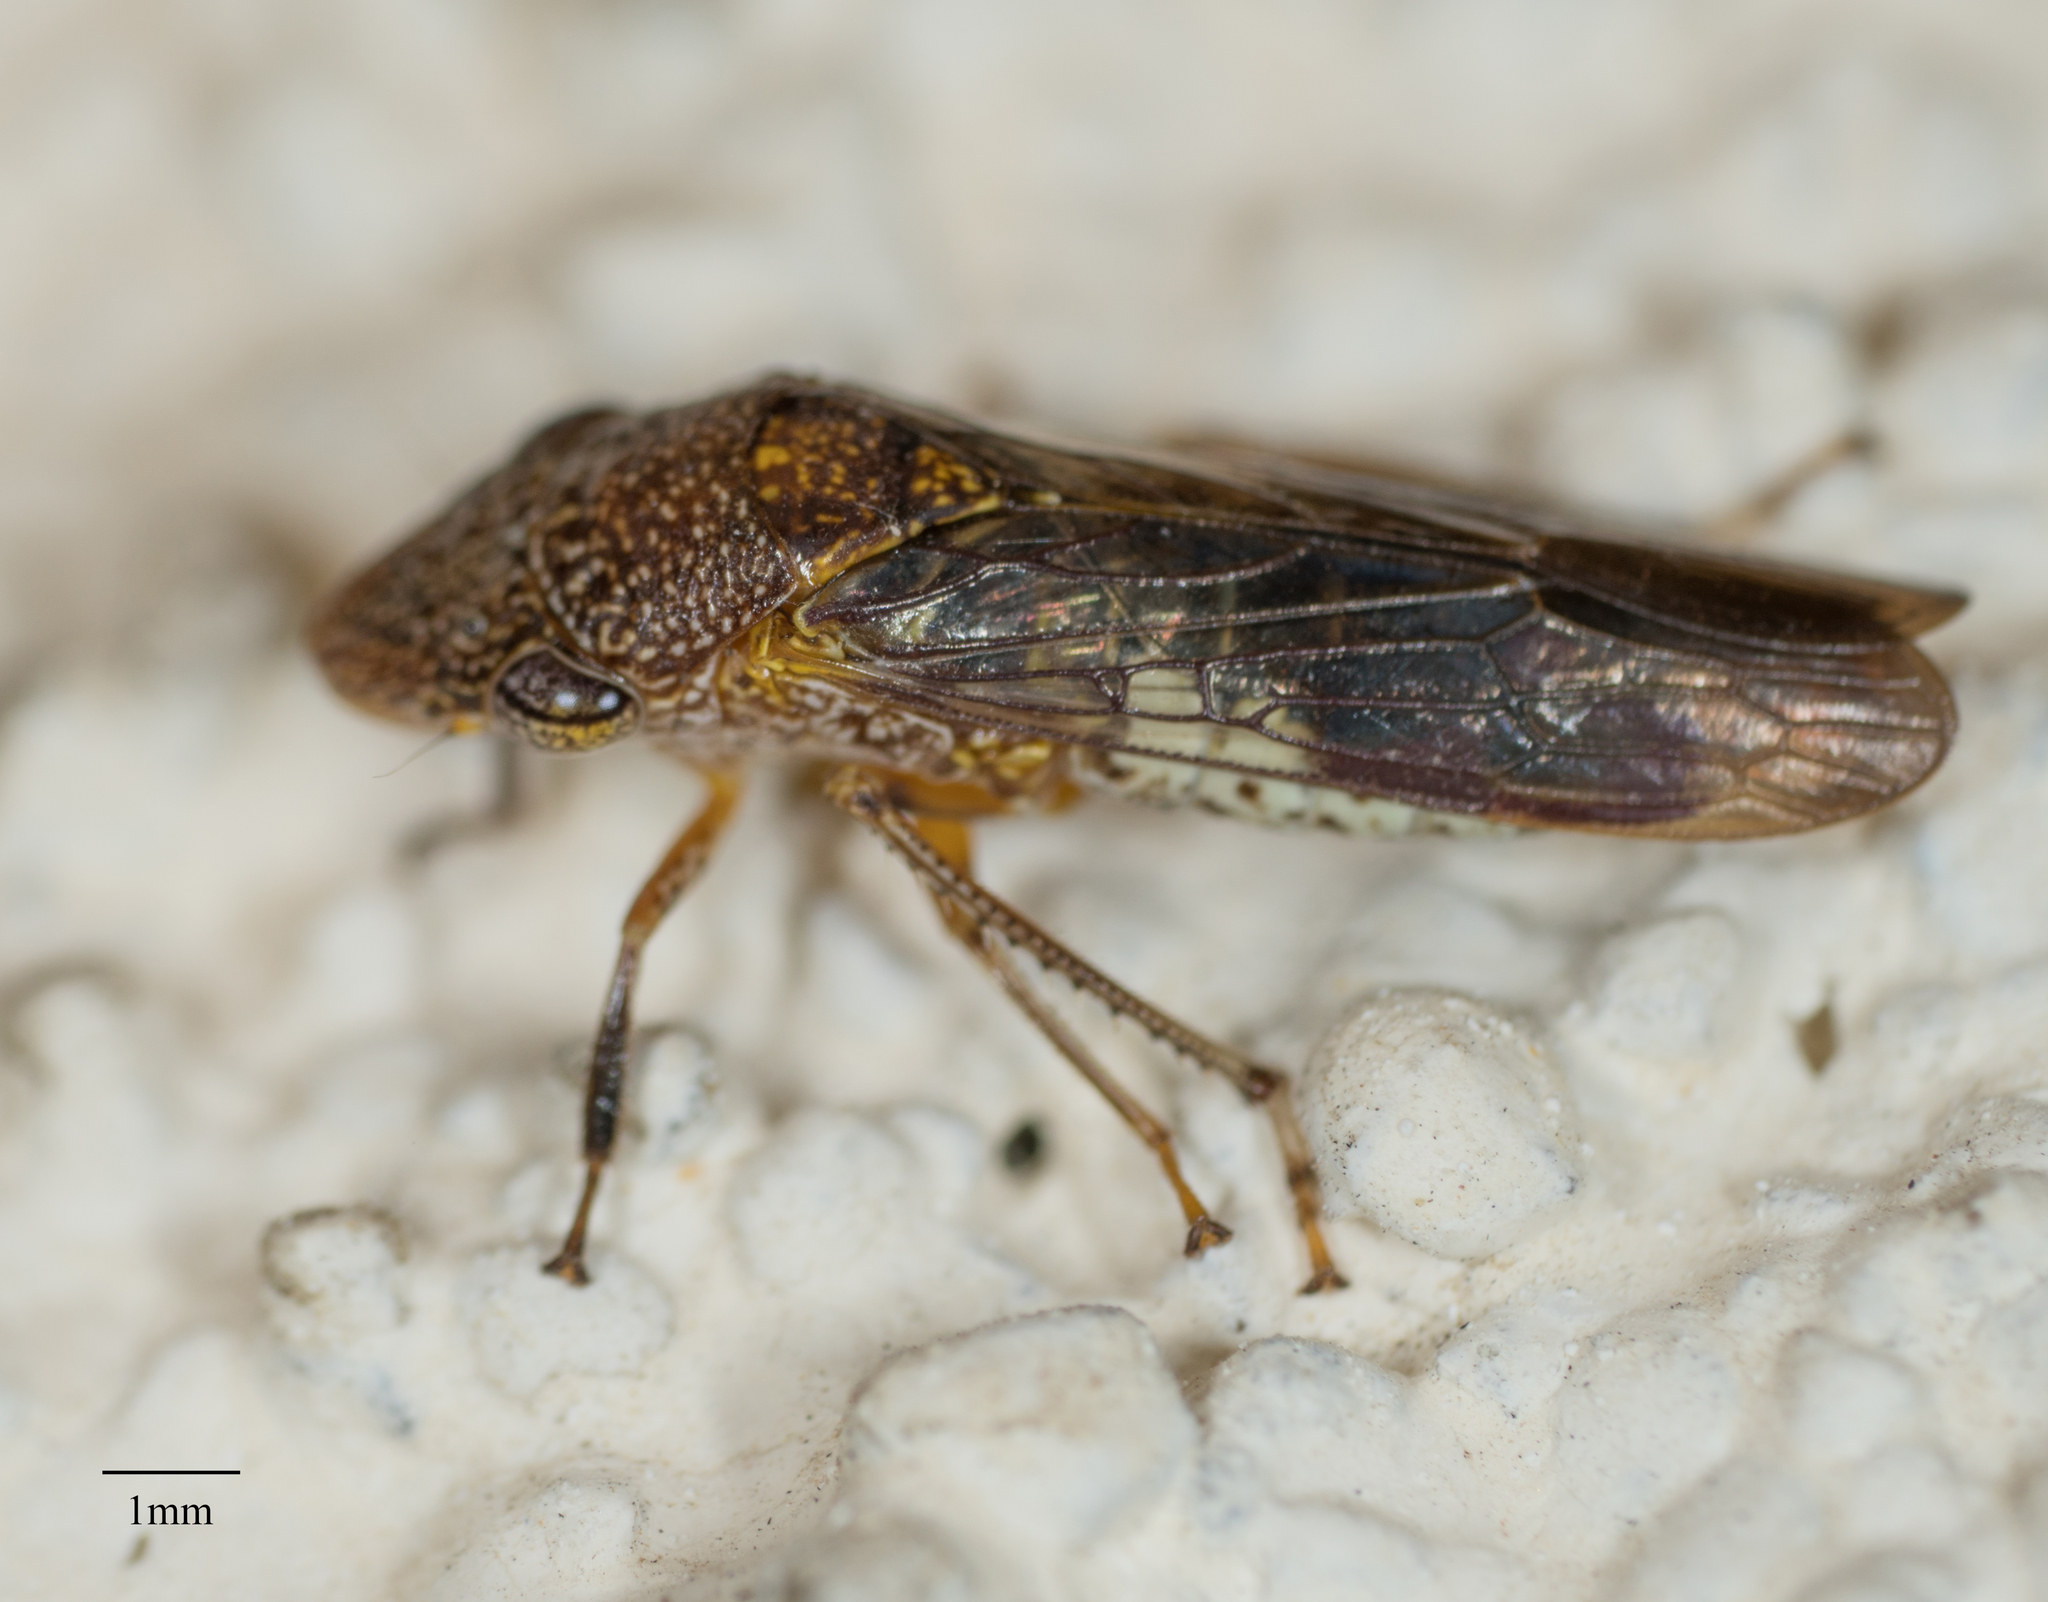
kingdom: Animalia
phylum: Arthropoda
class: Insecta
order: Hemiptera
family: Cicadellidae
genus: Homalodisca
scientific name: Homalodisca vitripennis
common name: Glassy-winged sharpshooter
